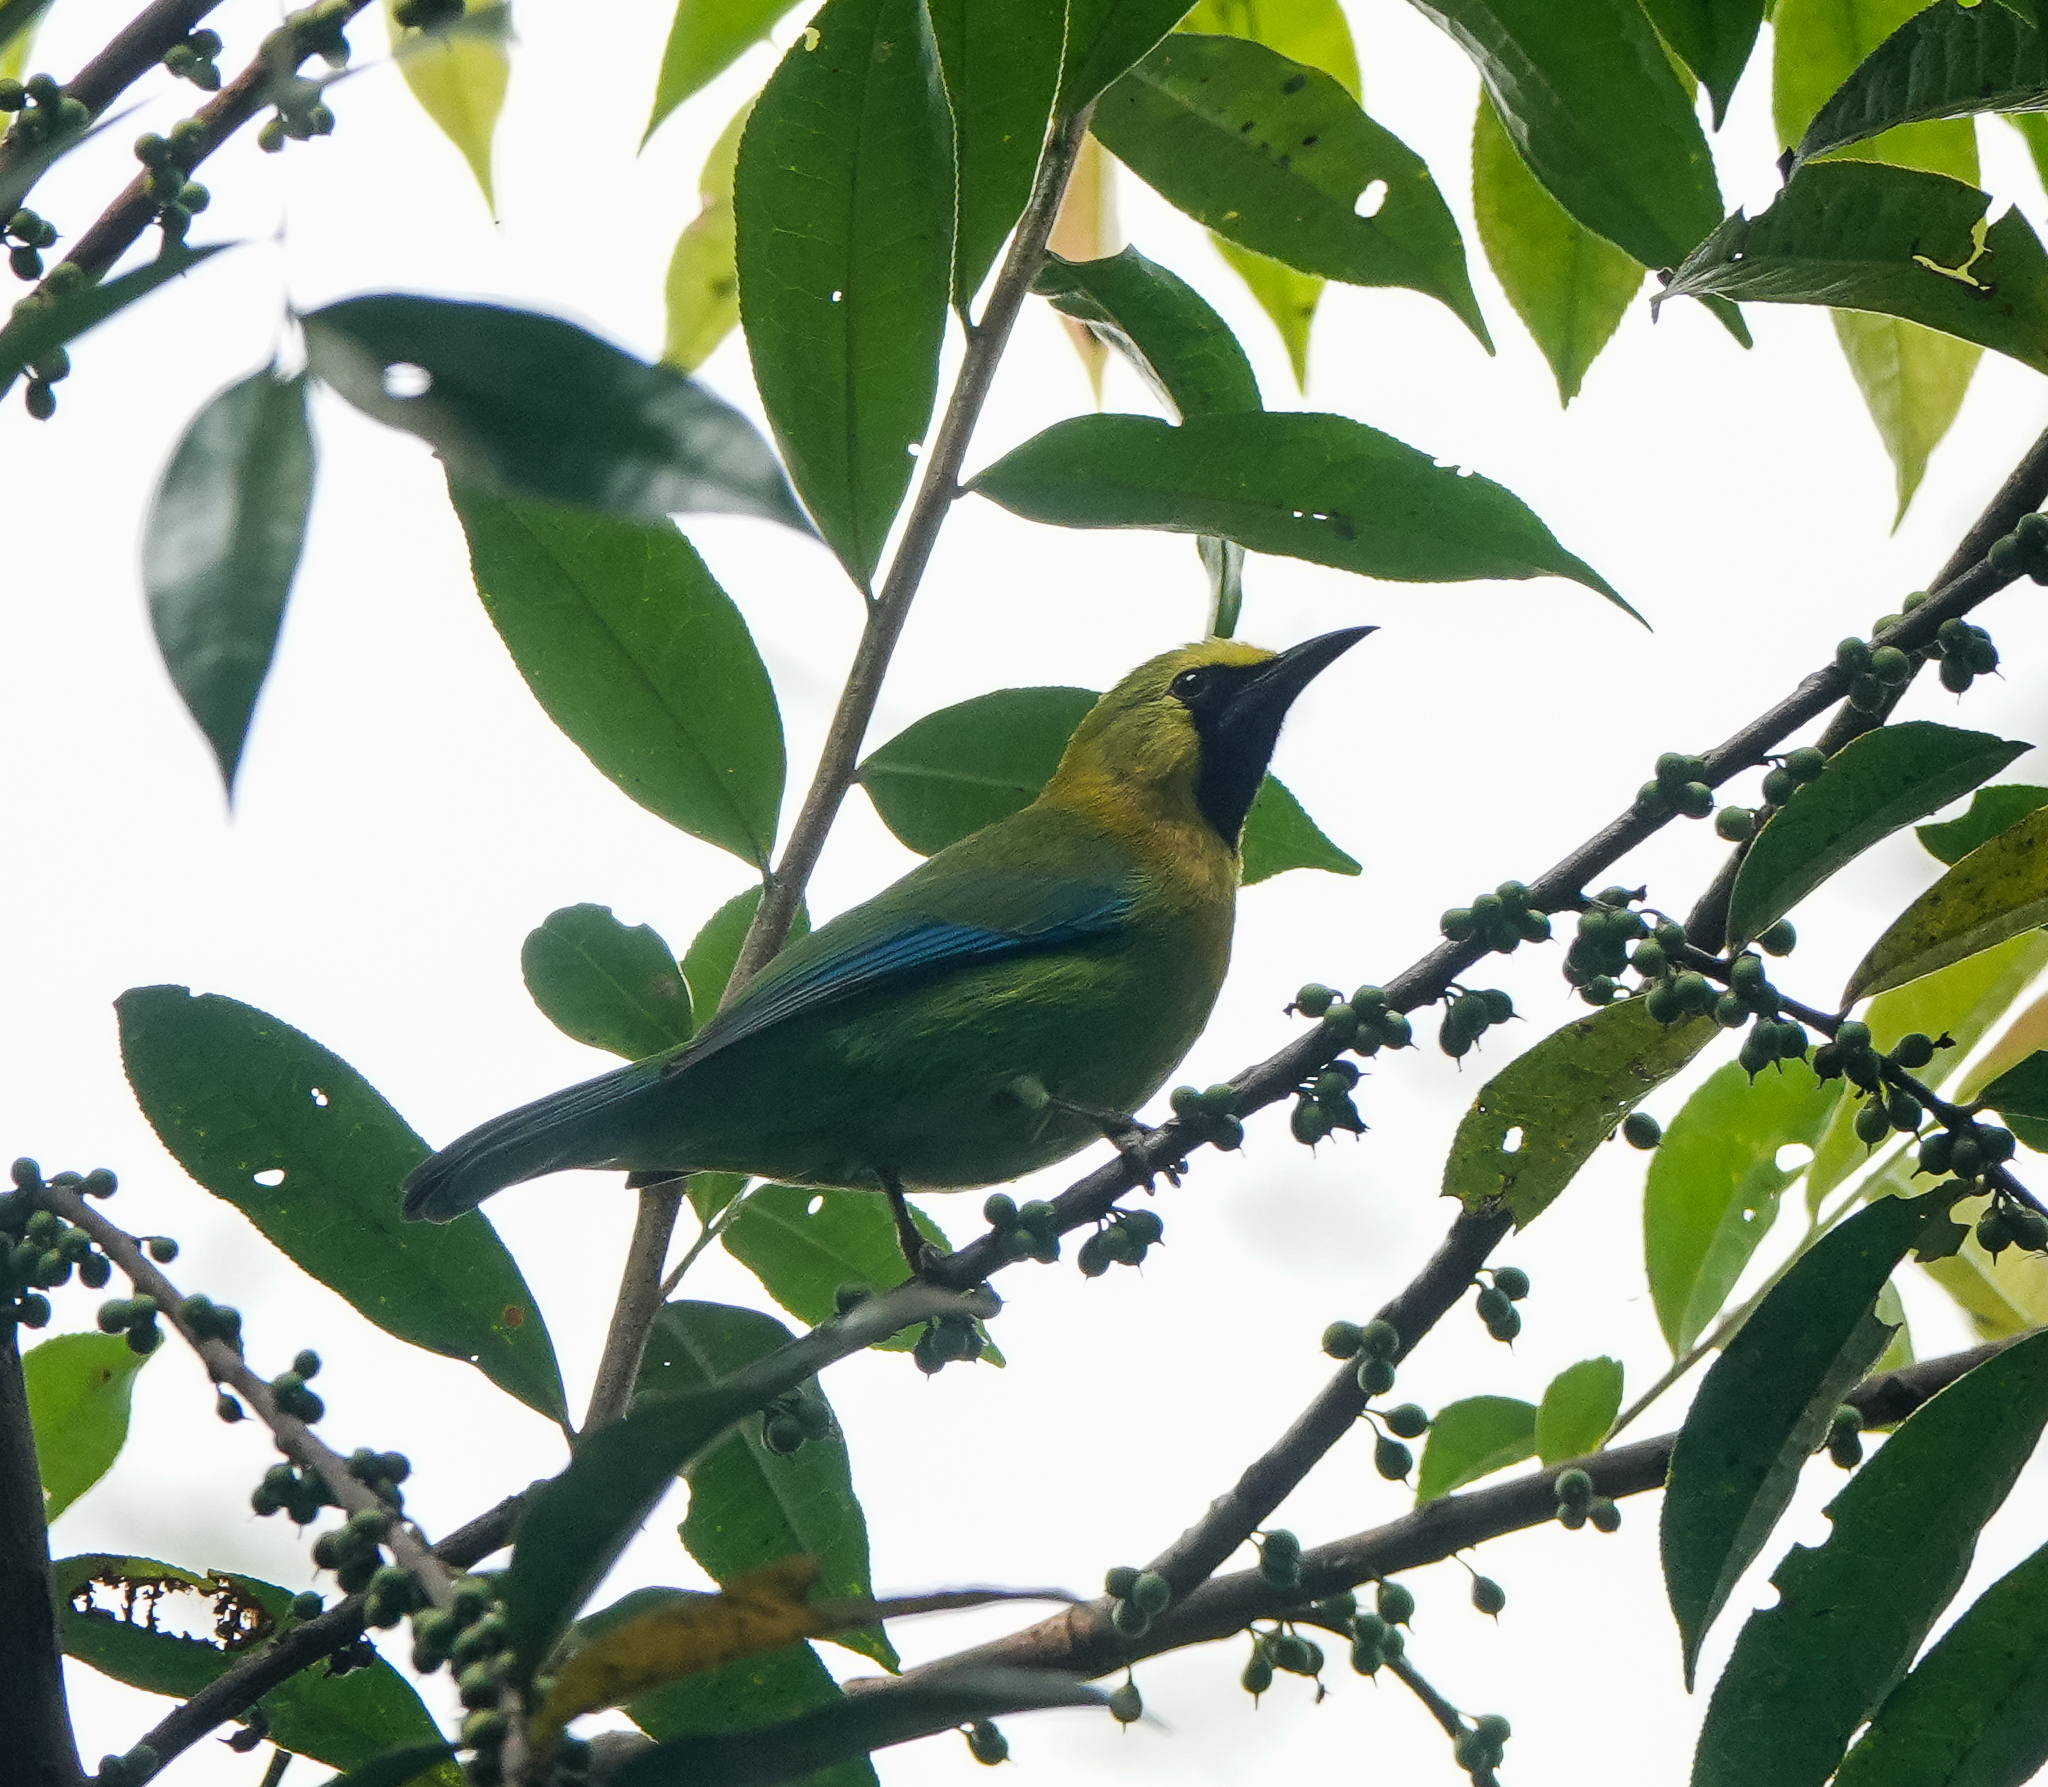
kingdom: Animalia
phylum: Chordata
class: Aves
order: Passeriformes
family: Chloropseidae
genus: Chloropsis
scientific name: Chloropsis moluccensis
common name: Blue-winged leafbird
